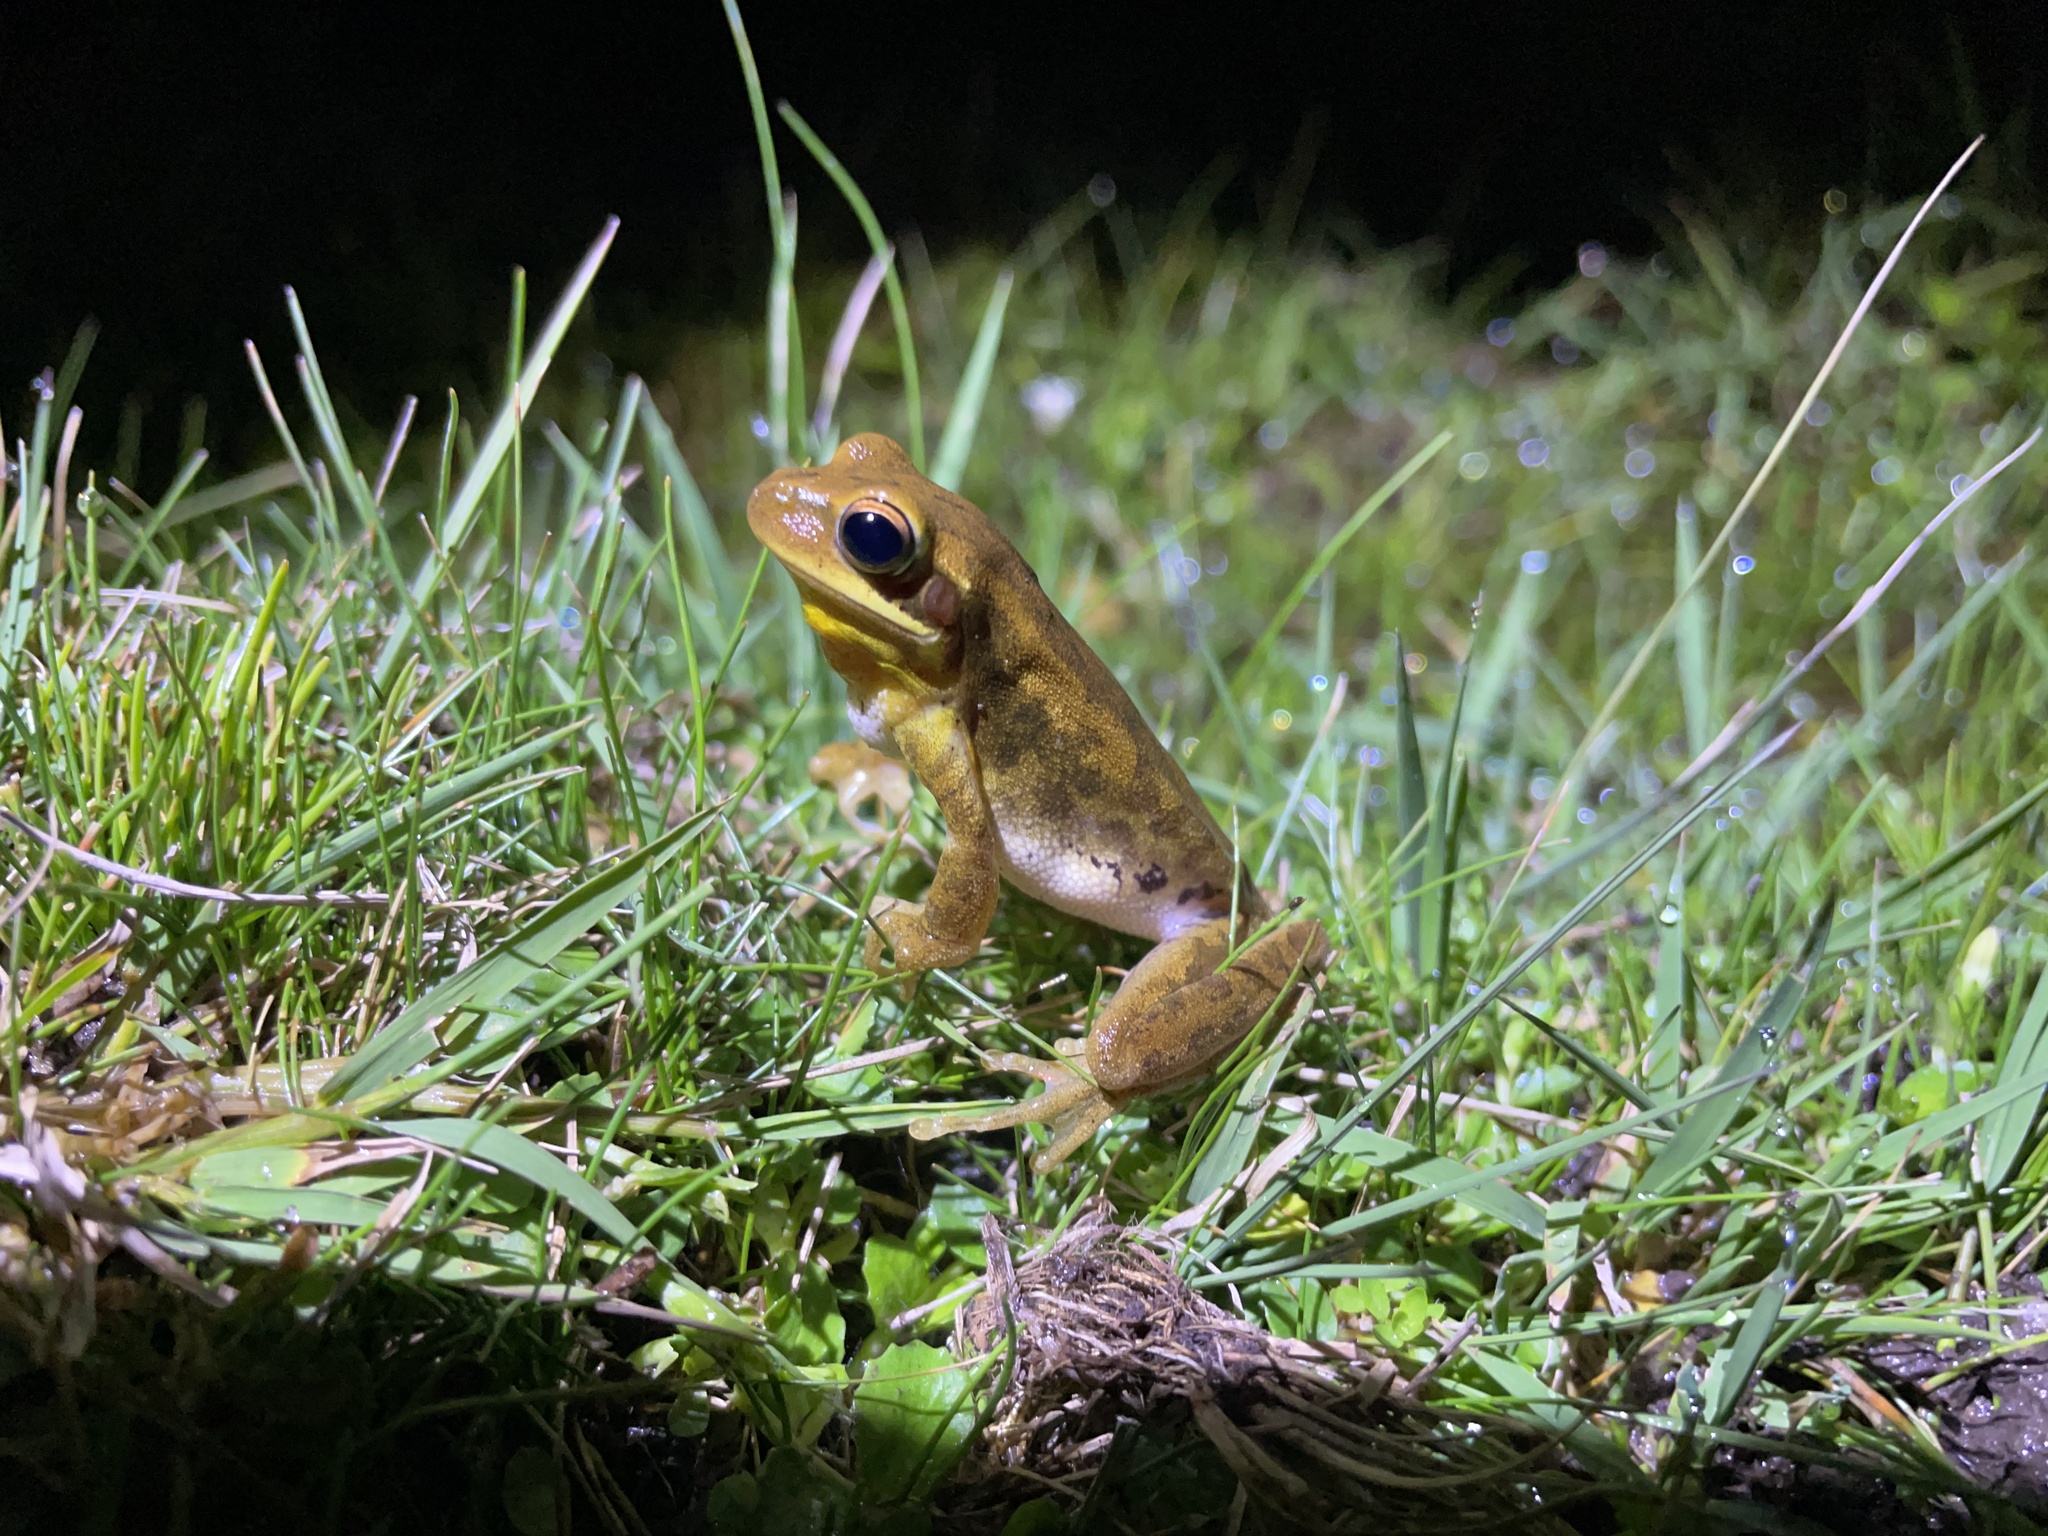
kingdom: Animalia
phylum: Chordata
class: Amphibia
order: Anura
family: Hylidae
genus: Boana
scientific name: Boana pulchella
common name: Montevideo treefrog
